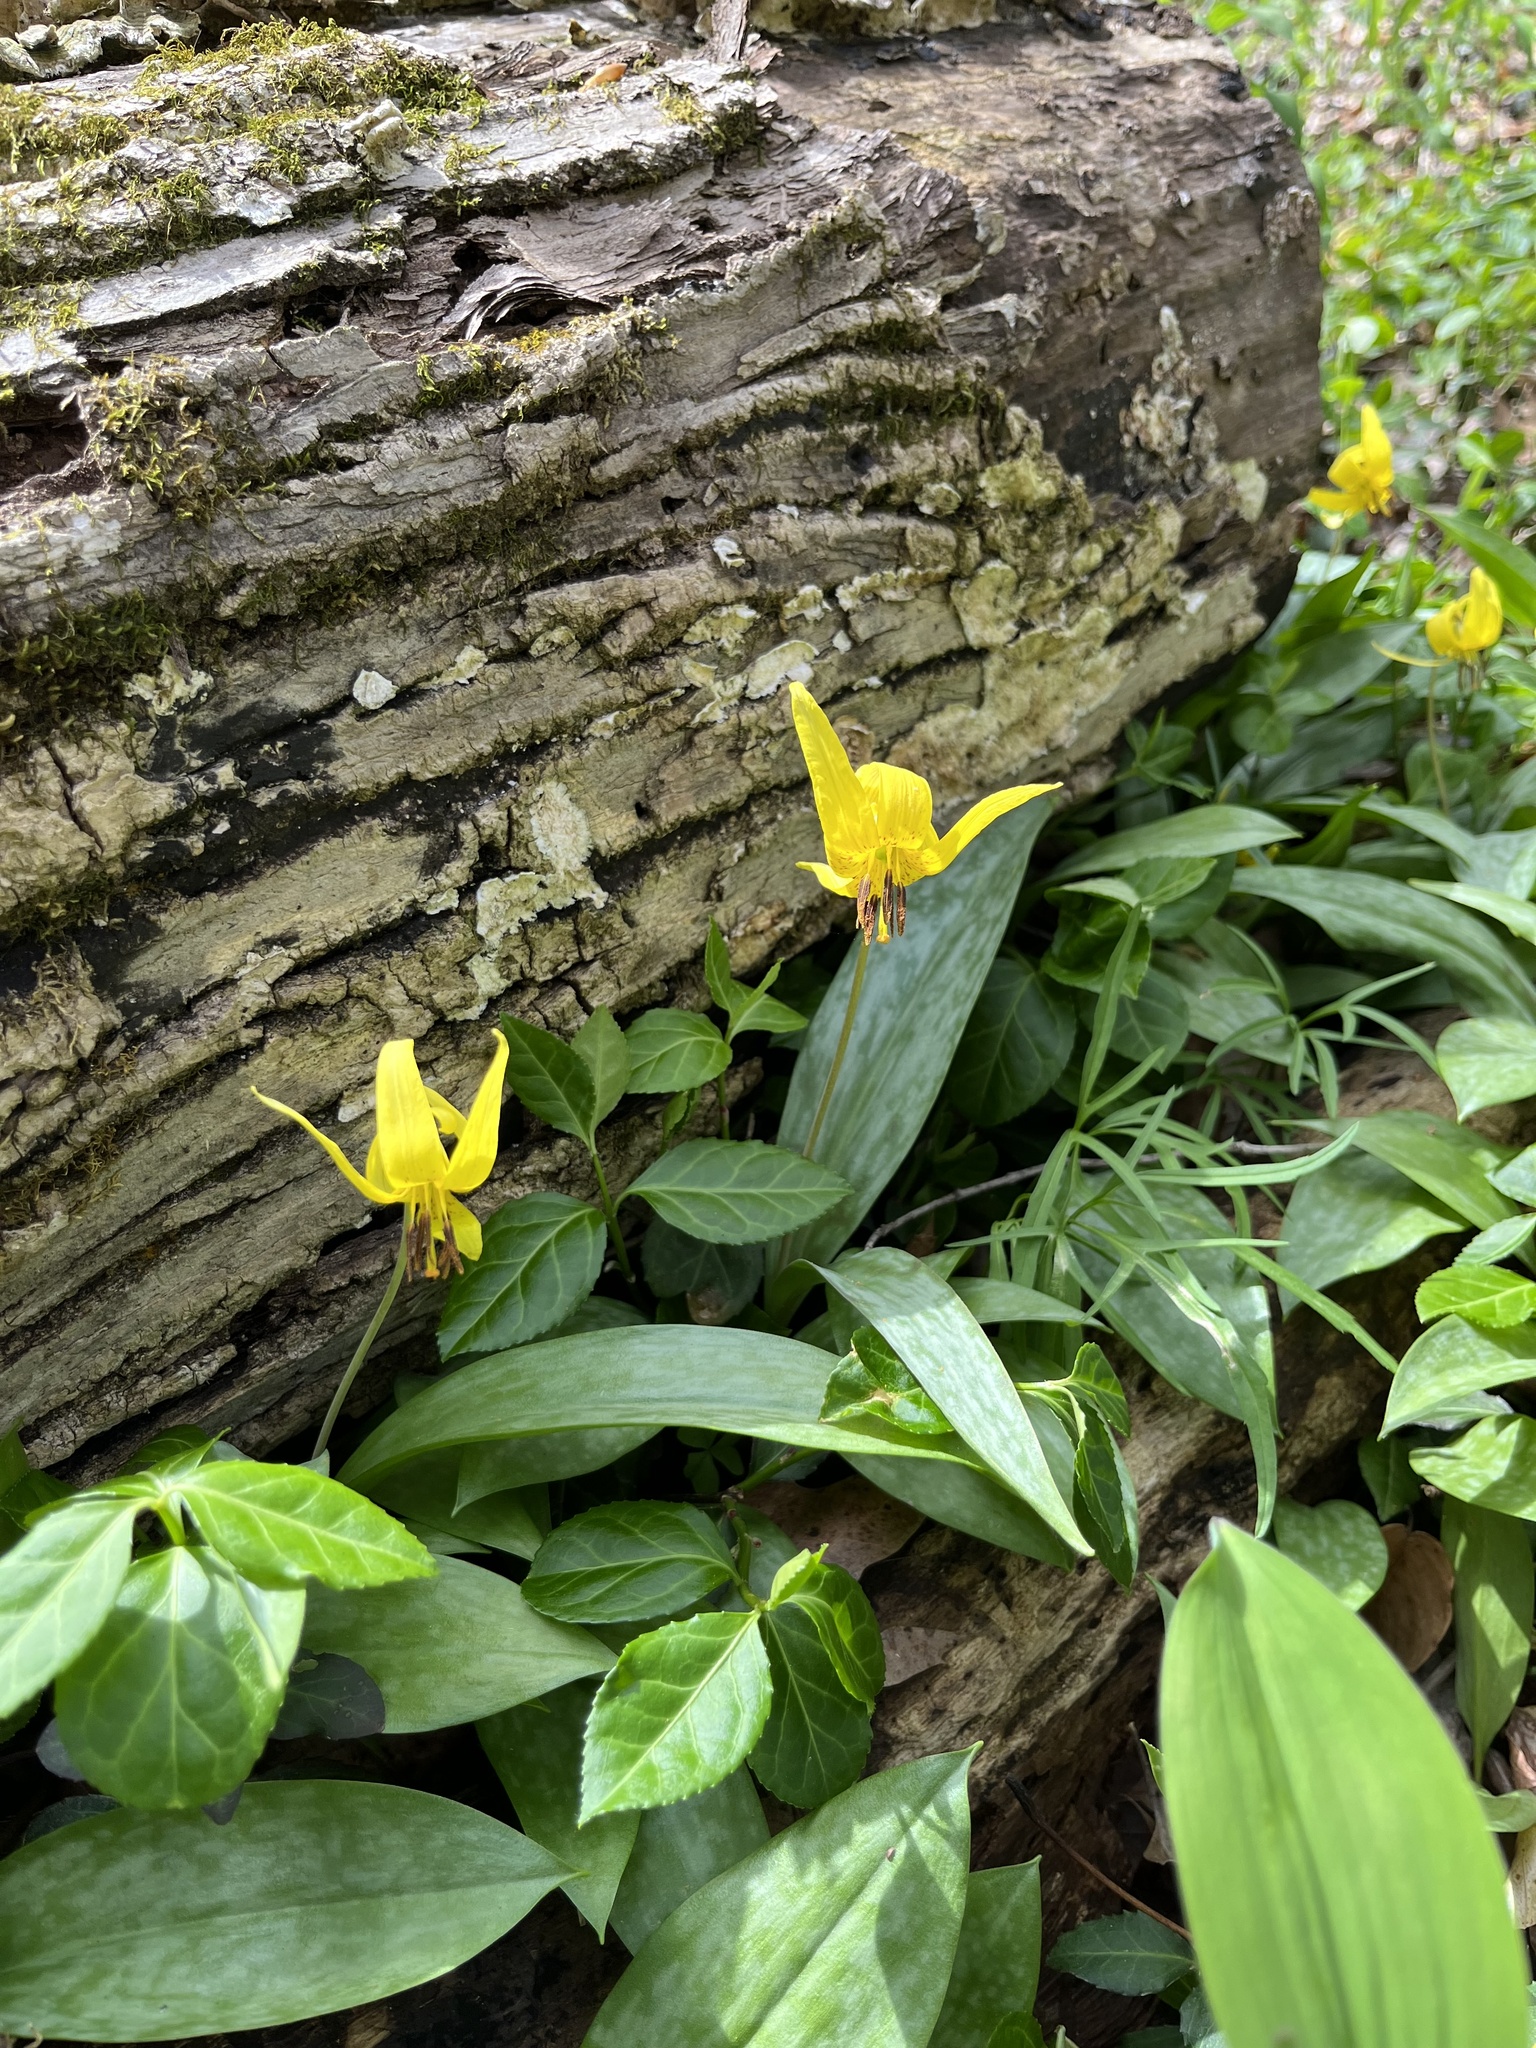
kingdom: Plantae
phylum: Tracheophyta
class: Liliopsida
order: Liliales
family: Liliaceae
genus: Erythronium
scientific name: Erythronium americanum
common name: Yellow adder's-tongue
